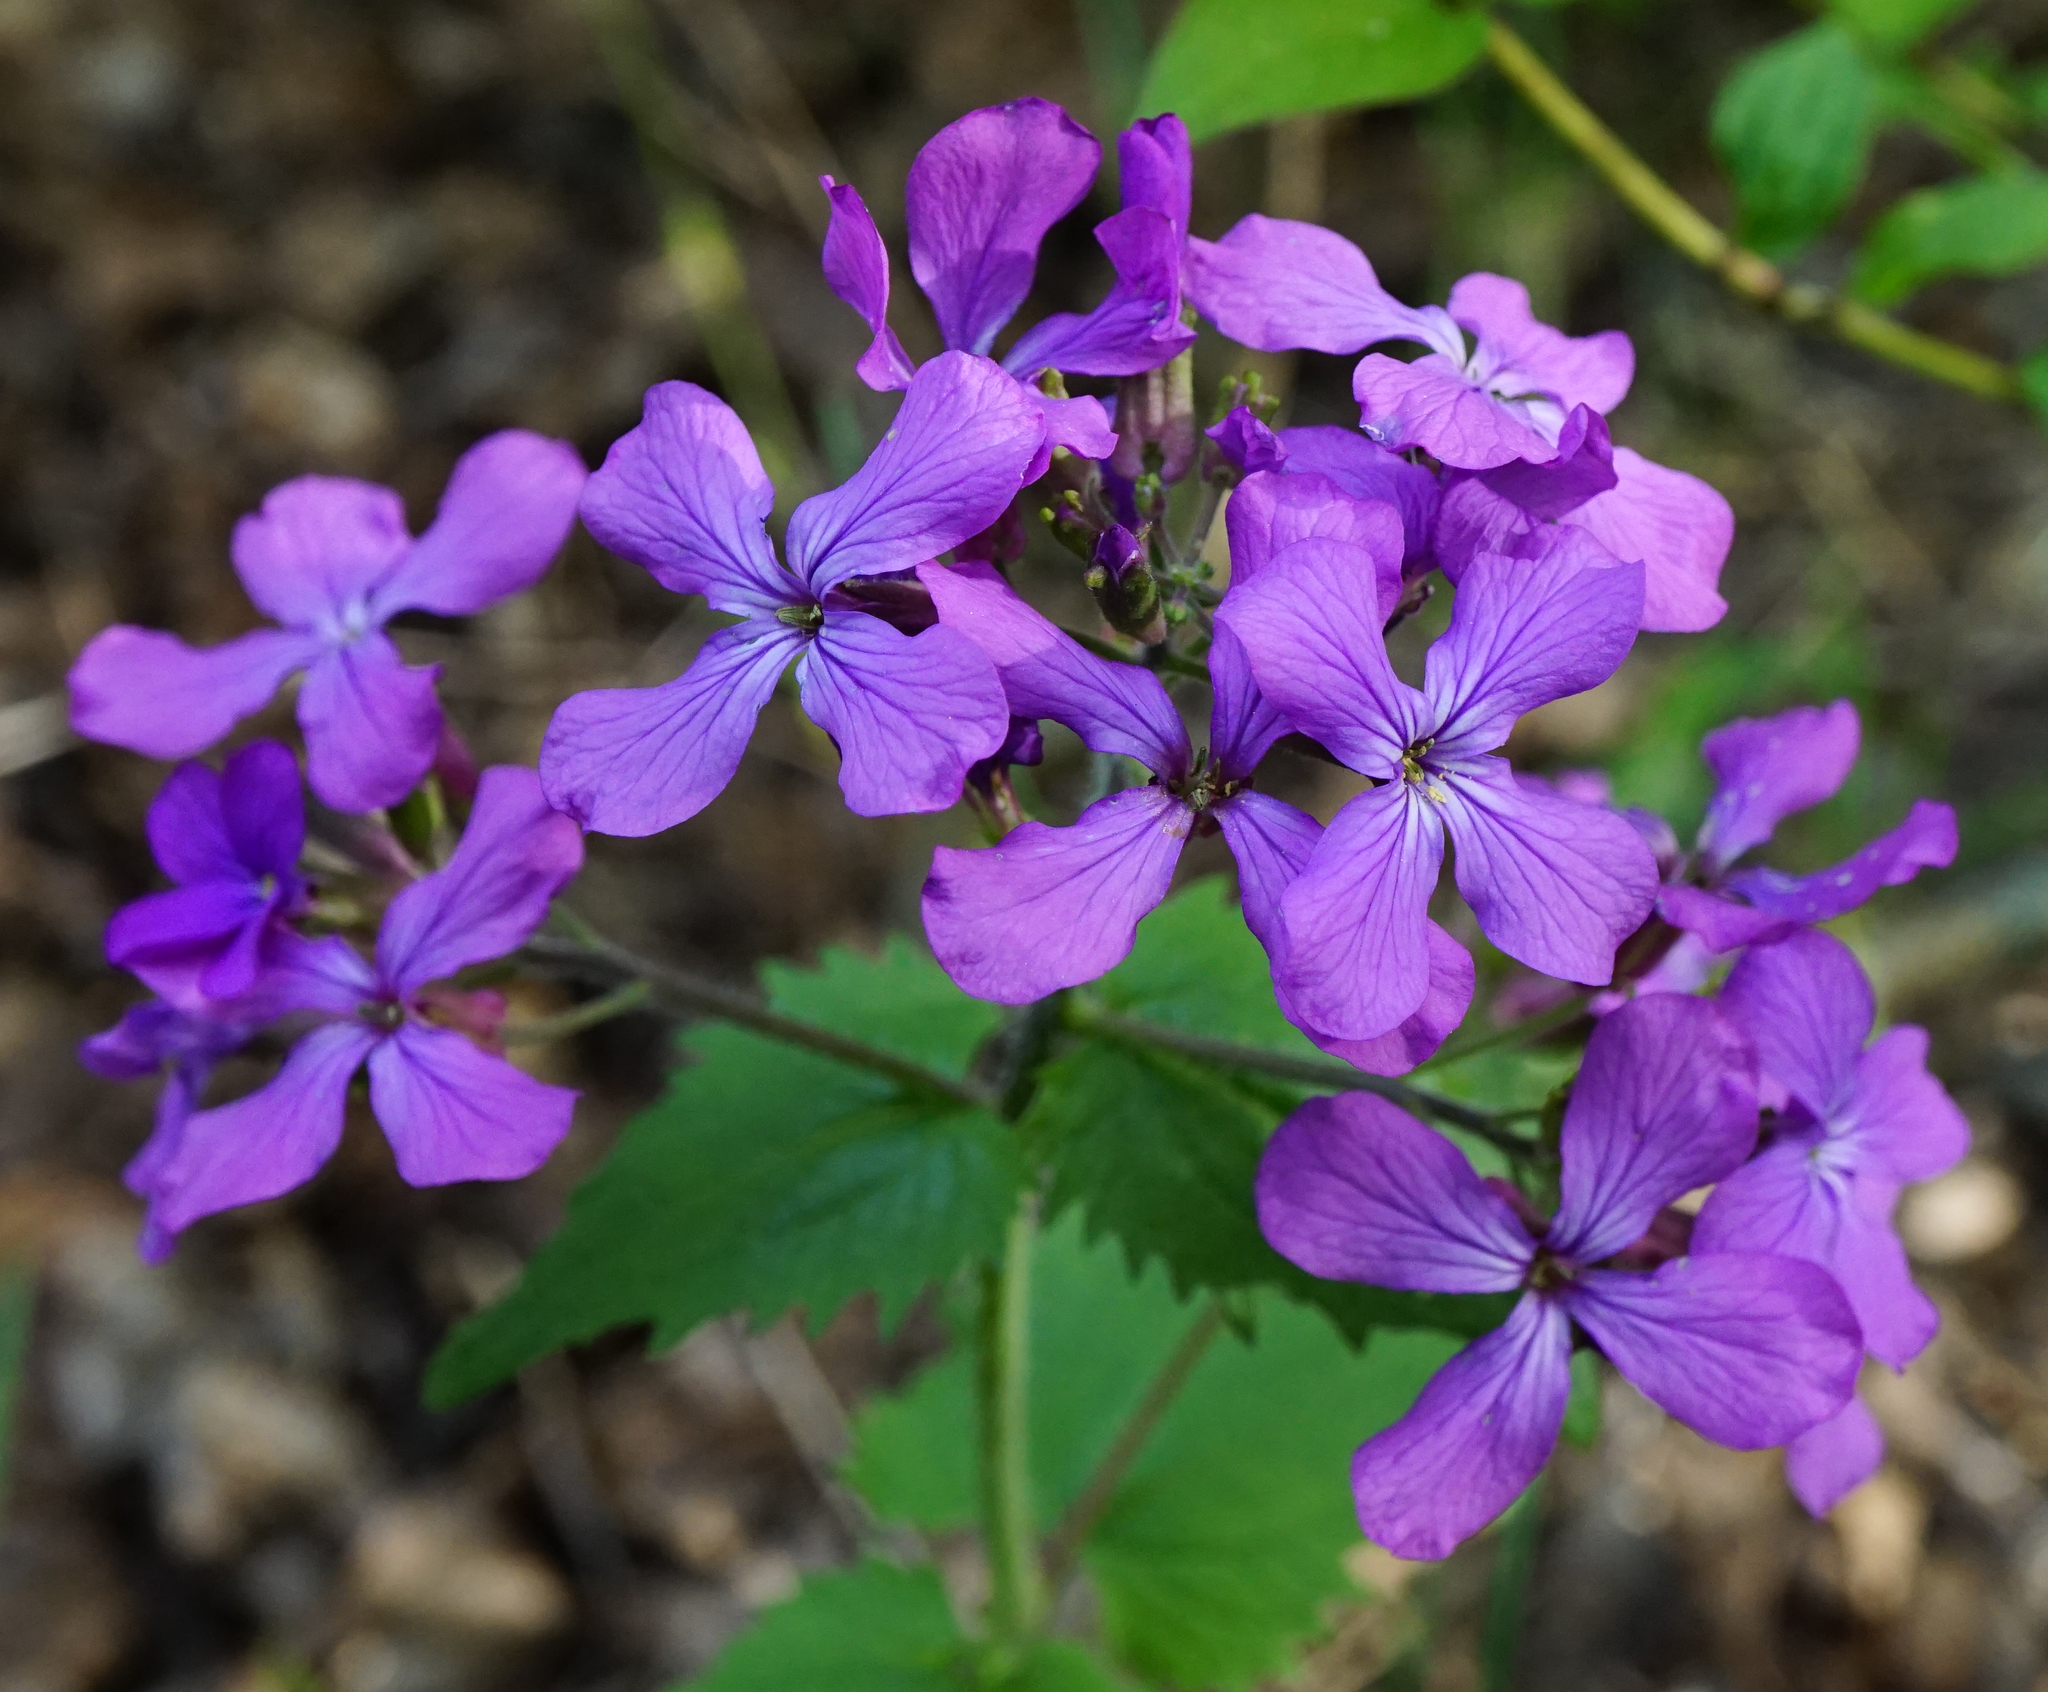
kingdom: Plantae
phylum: Tracheophyta
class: Magnoliopsida
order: Brassicales
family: Brassicaceae
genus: Lunaria
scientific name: Lunaria annua
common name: Honesty
